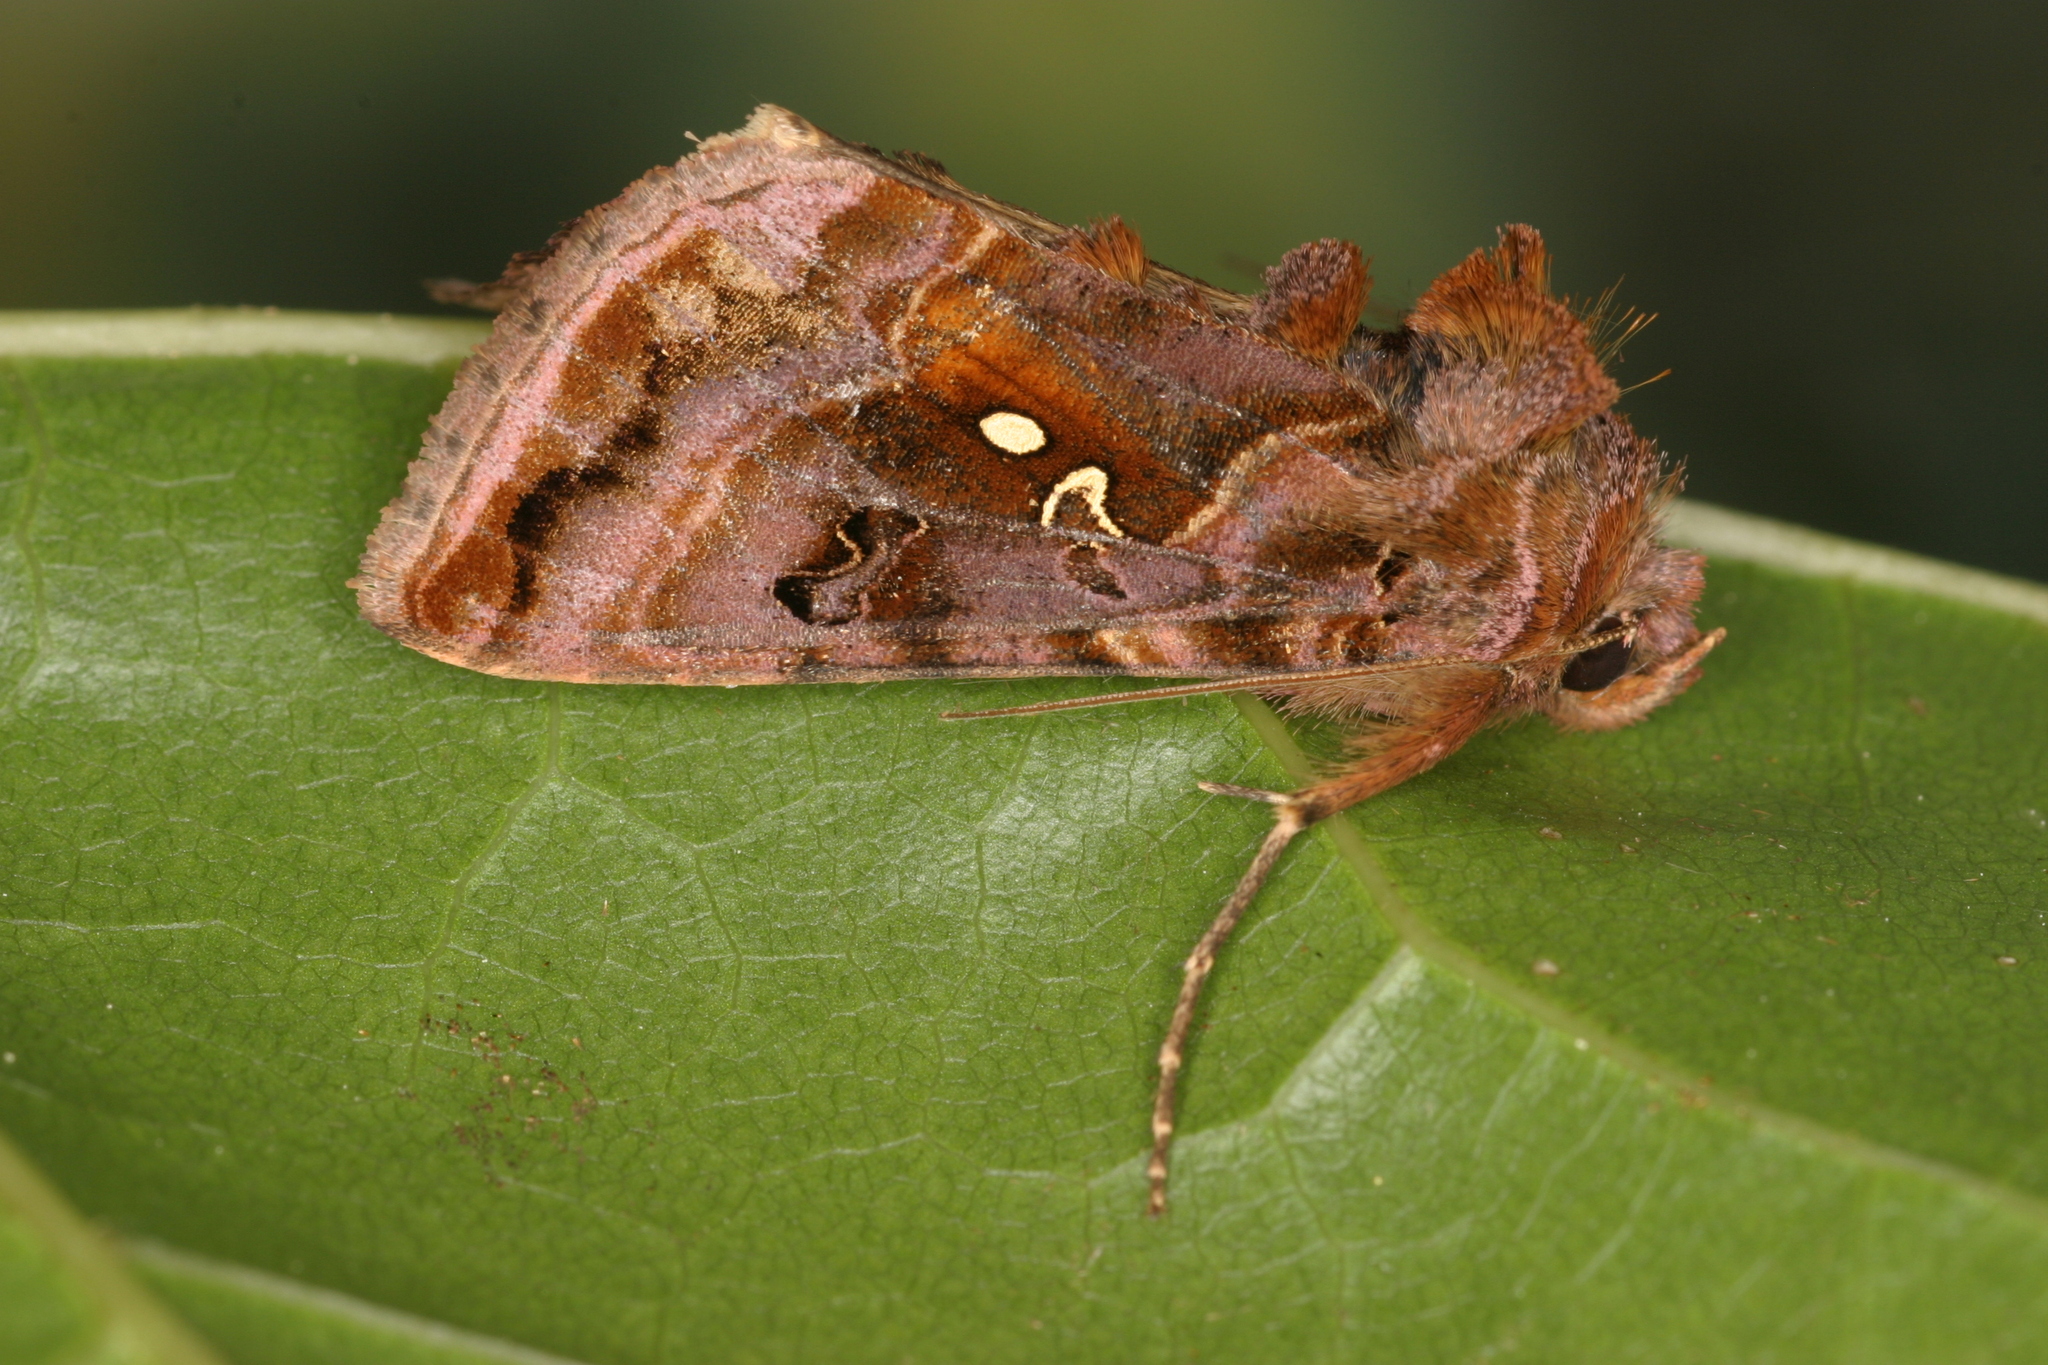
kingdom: Animalia
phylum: Arthropoda
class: Insecta
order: Lepidoptera
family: Noctuidae
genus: Autographa
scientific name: Autographa pulchrina
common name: Beautiful golden y
